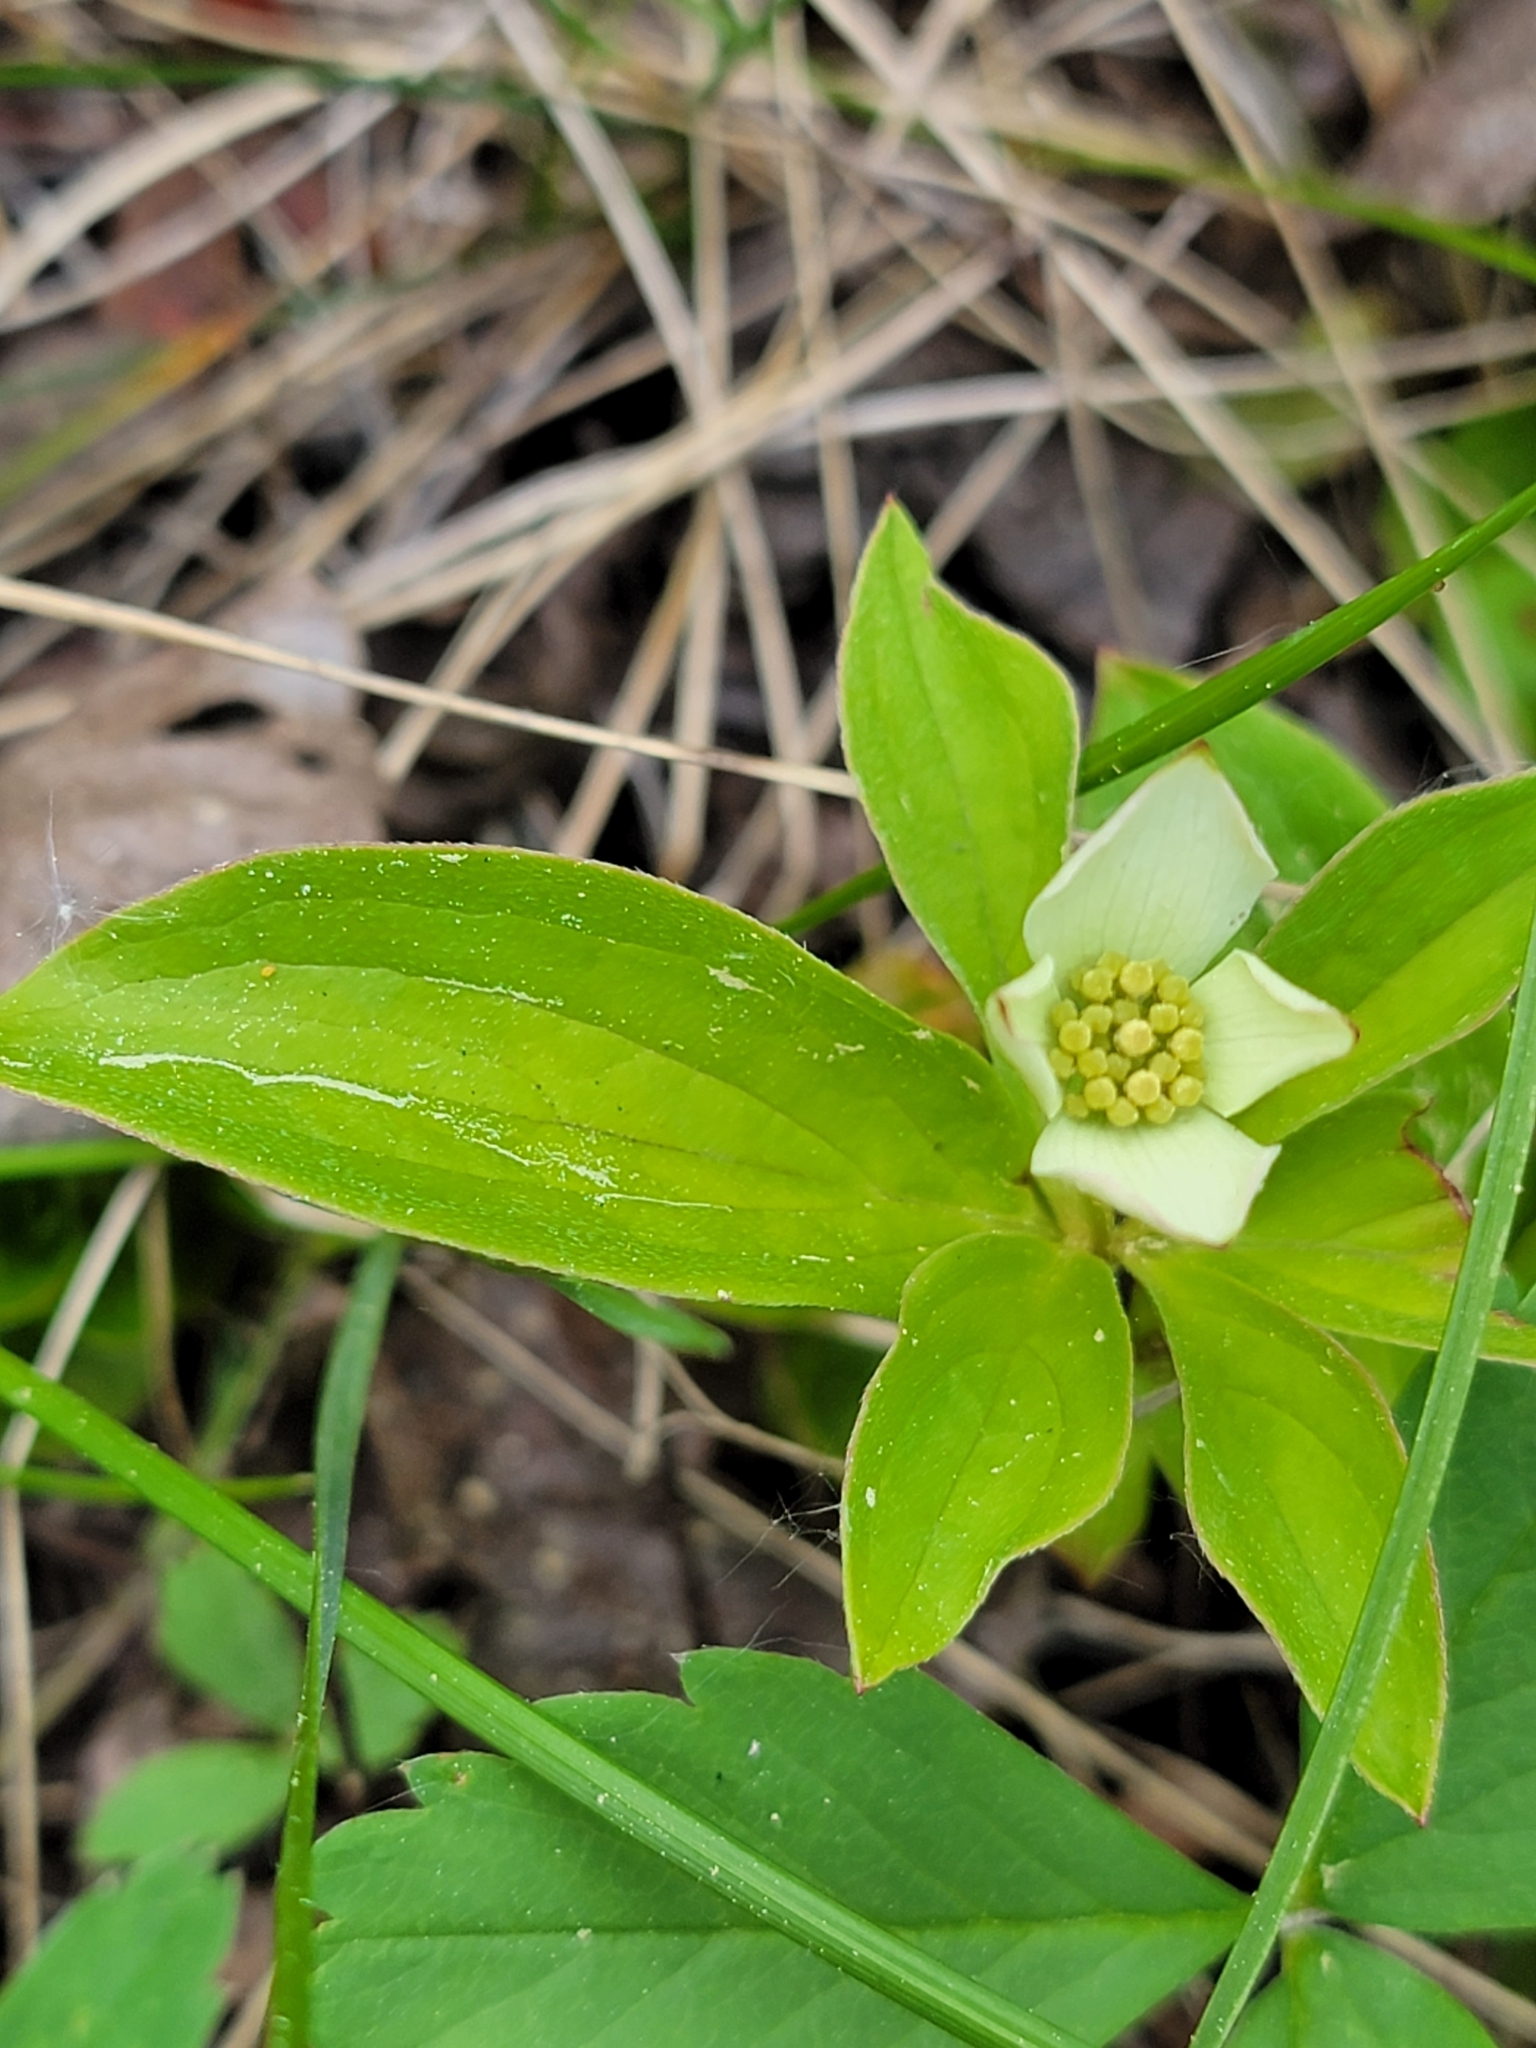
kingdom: Plantae
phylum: Tracheophyta
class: Magnoliopsida
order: Cornales
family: Cornaceae
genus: Cornus
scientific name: Cornus canadensis
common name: Creeping dogwood
